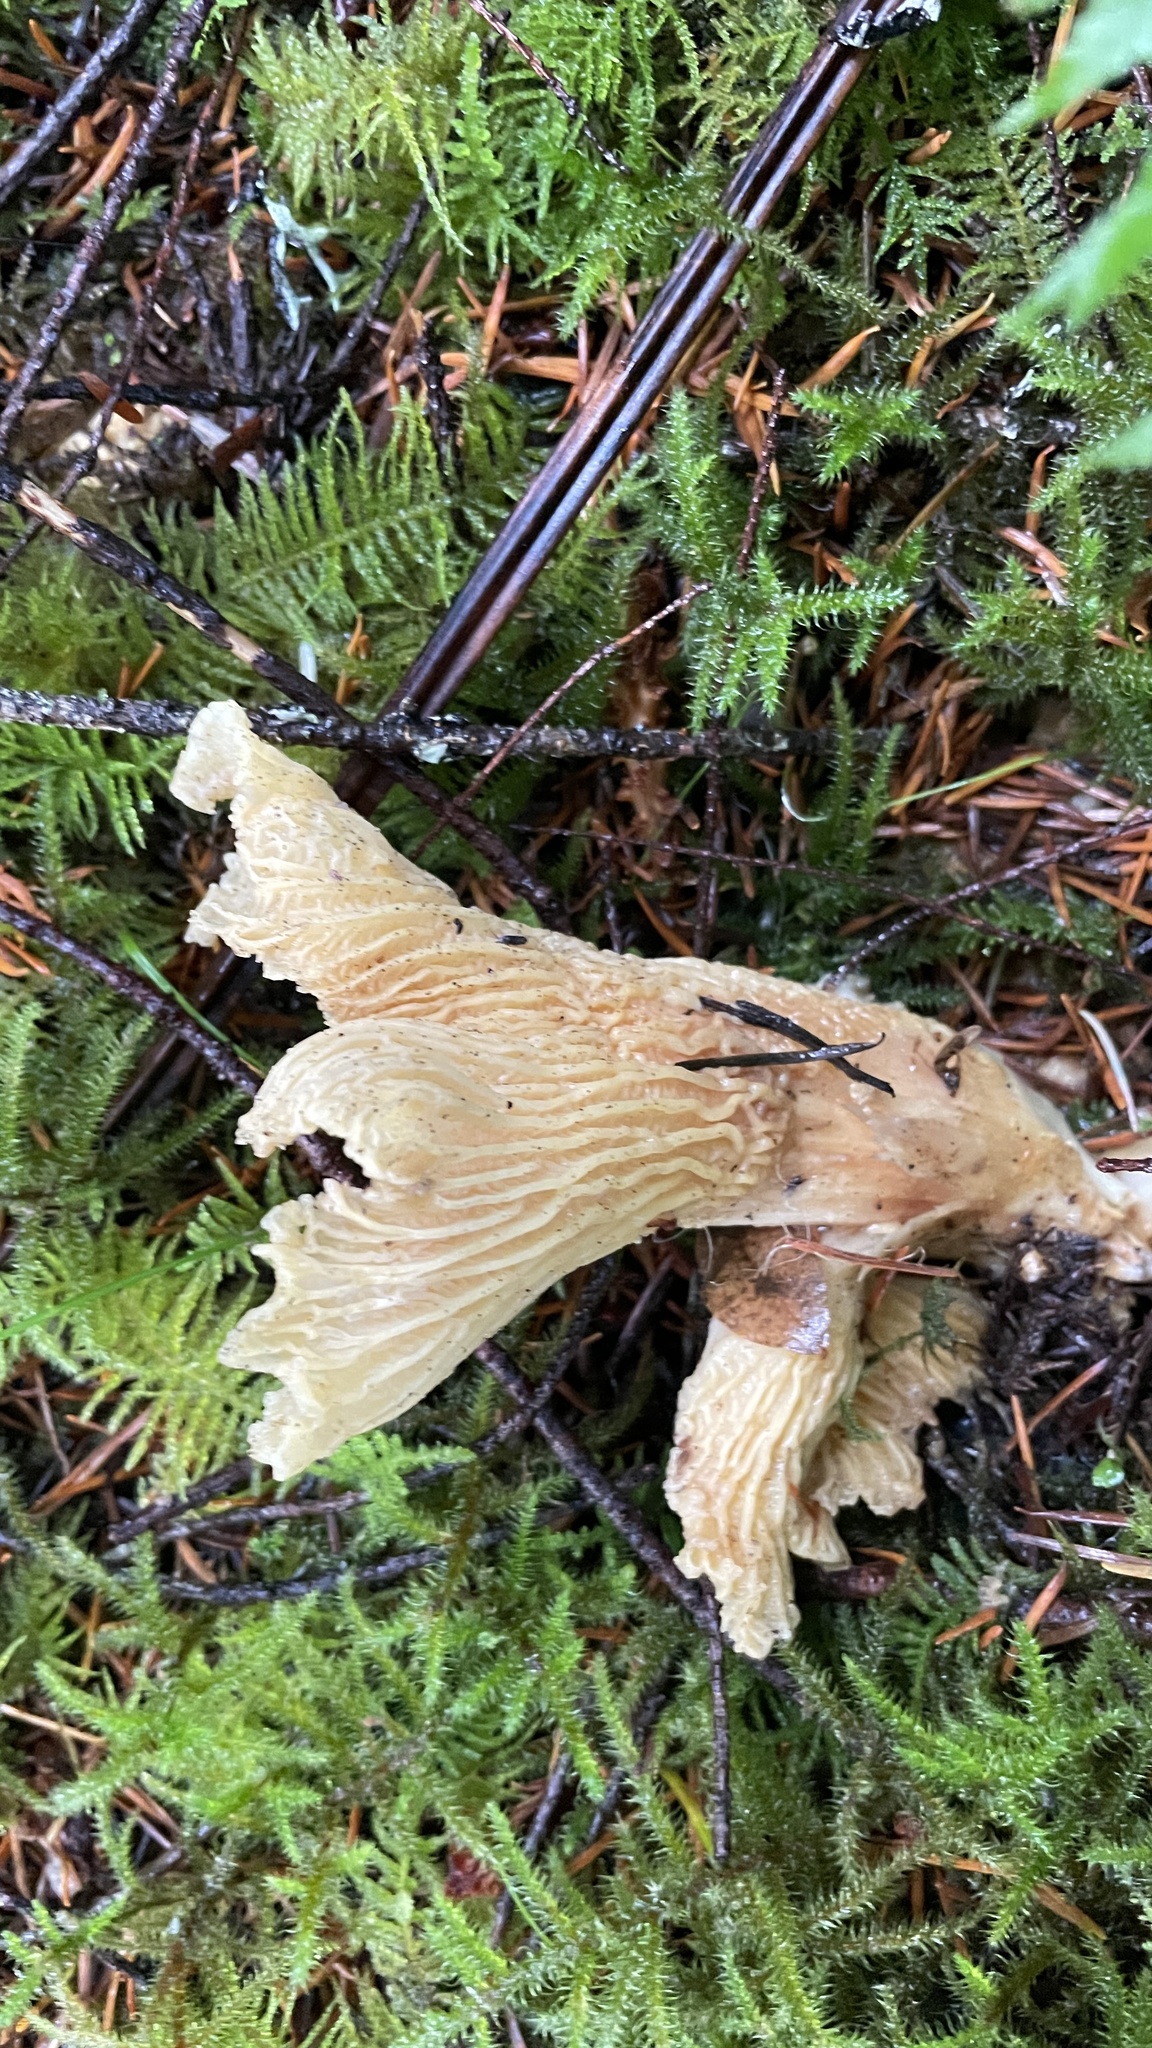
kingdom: Fungi
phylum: Basidiomycota
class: Agaricomycetes
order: Cantharellales
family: Hydnaceae
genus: Cantharellus
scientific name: Cantharellus subalbidus
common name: White chanterelle
